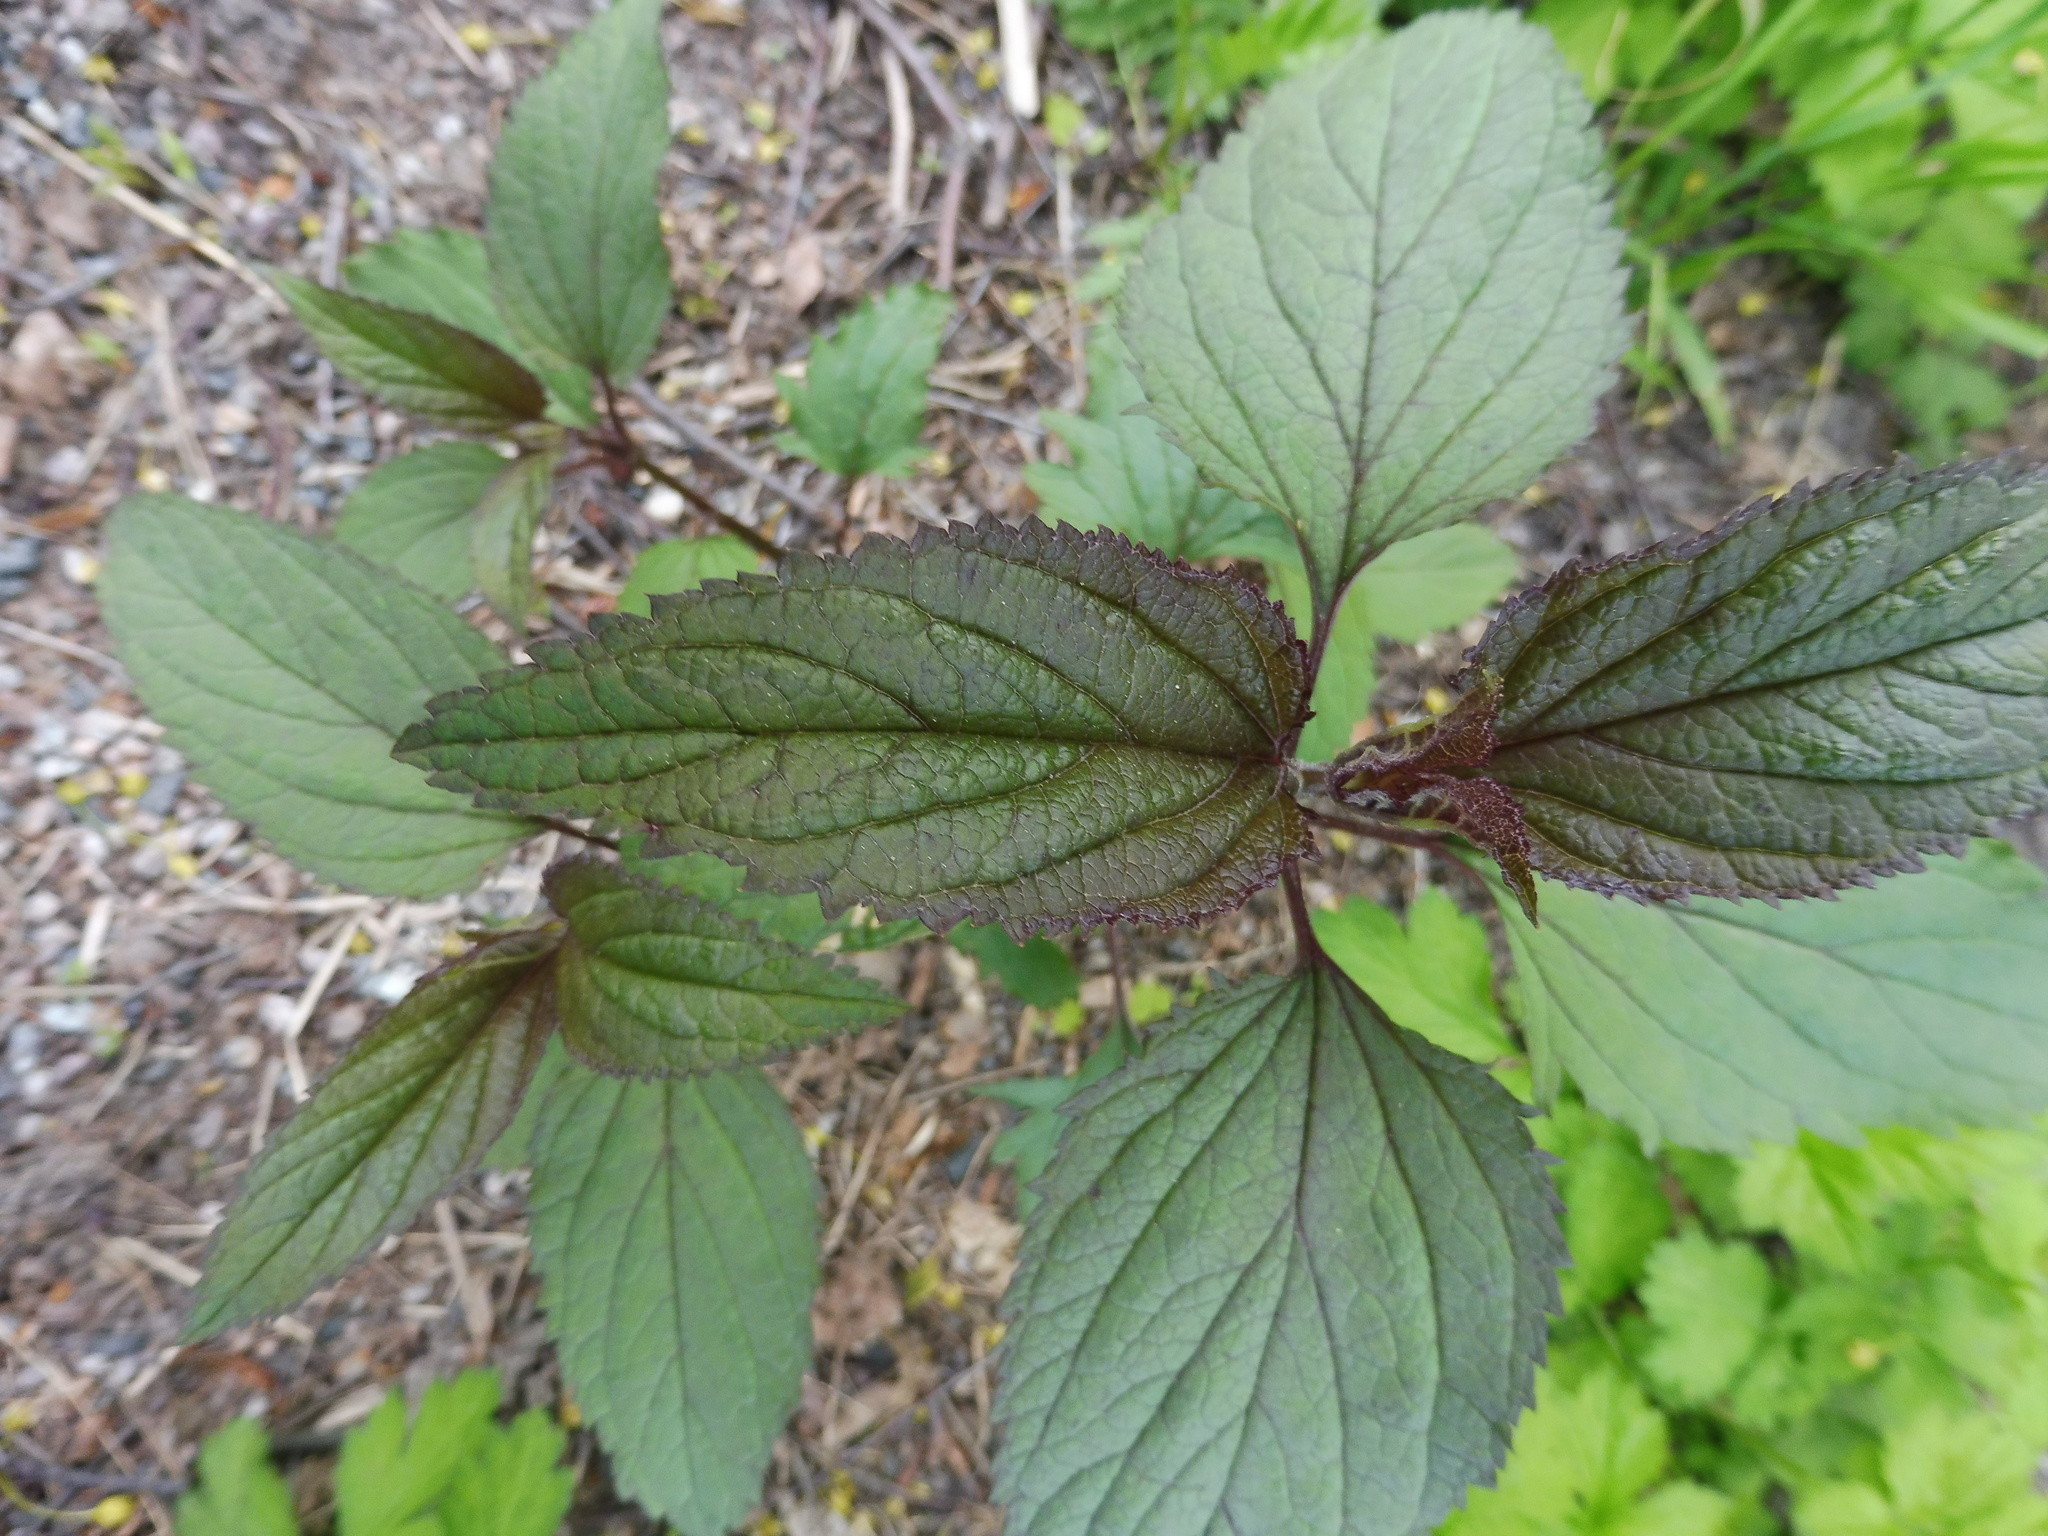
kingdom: Plantae
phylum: Tracheophyta
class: Magnoliopsida
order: Lamiales
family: Scrophulariaceae
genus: Scrophularia
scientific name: Scrophularia nodosa
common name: Common figwort
